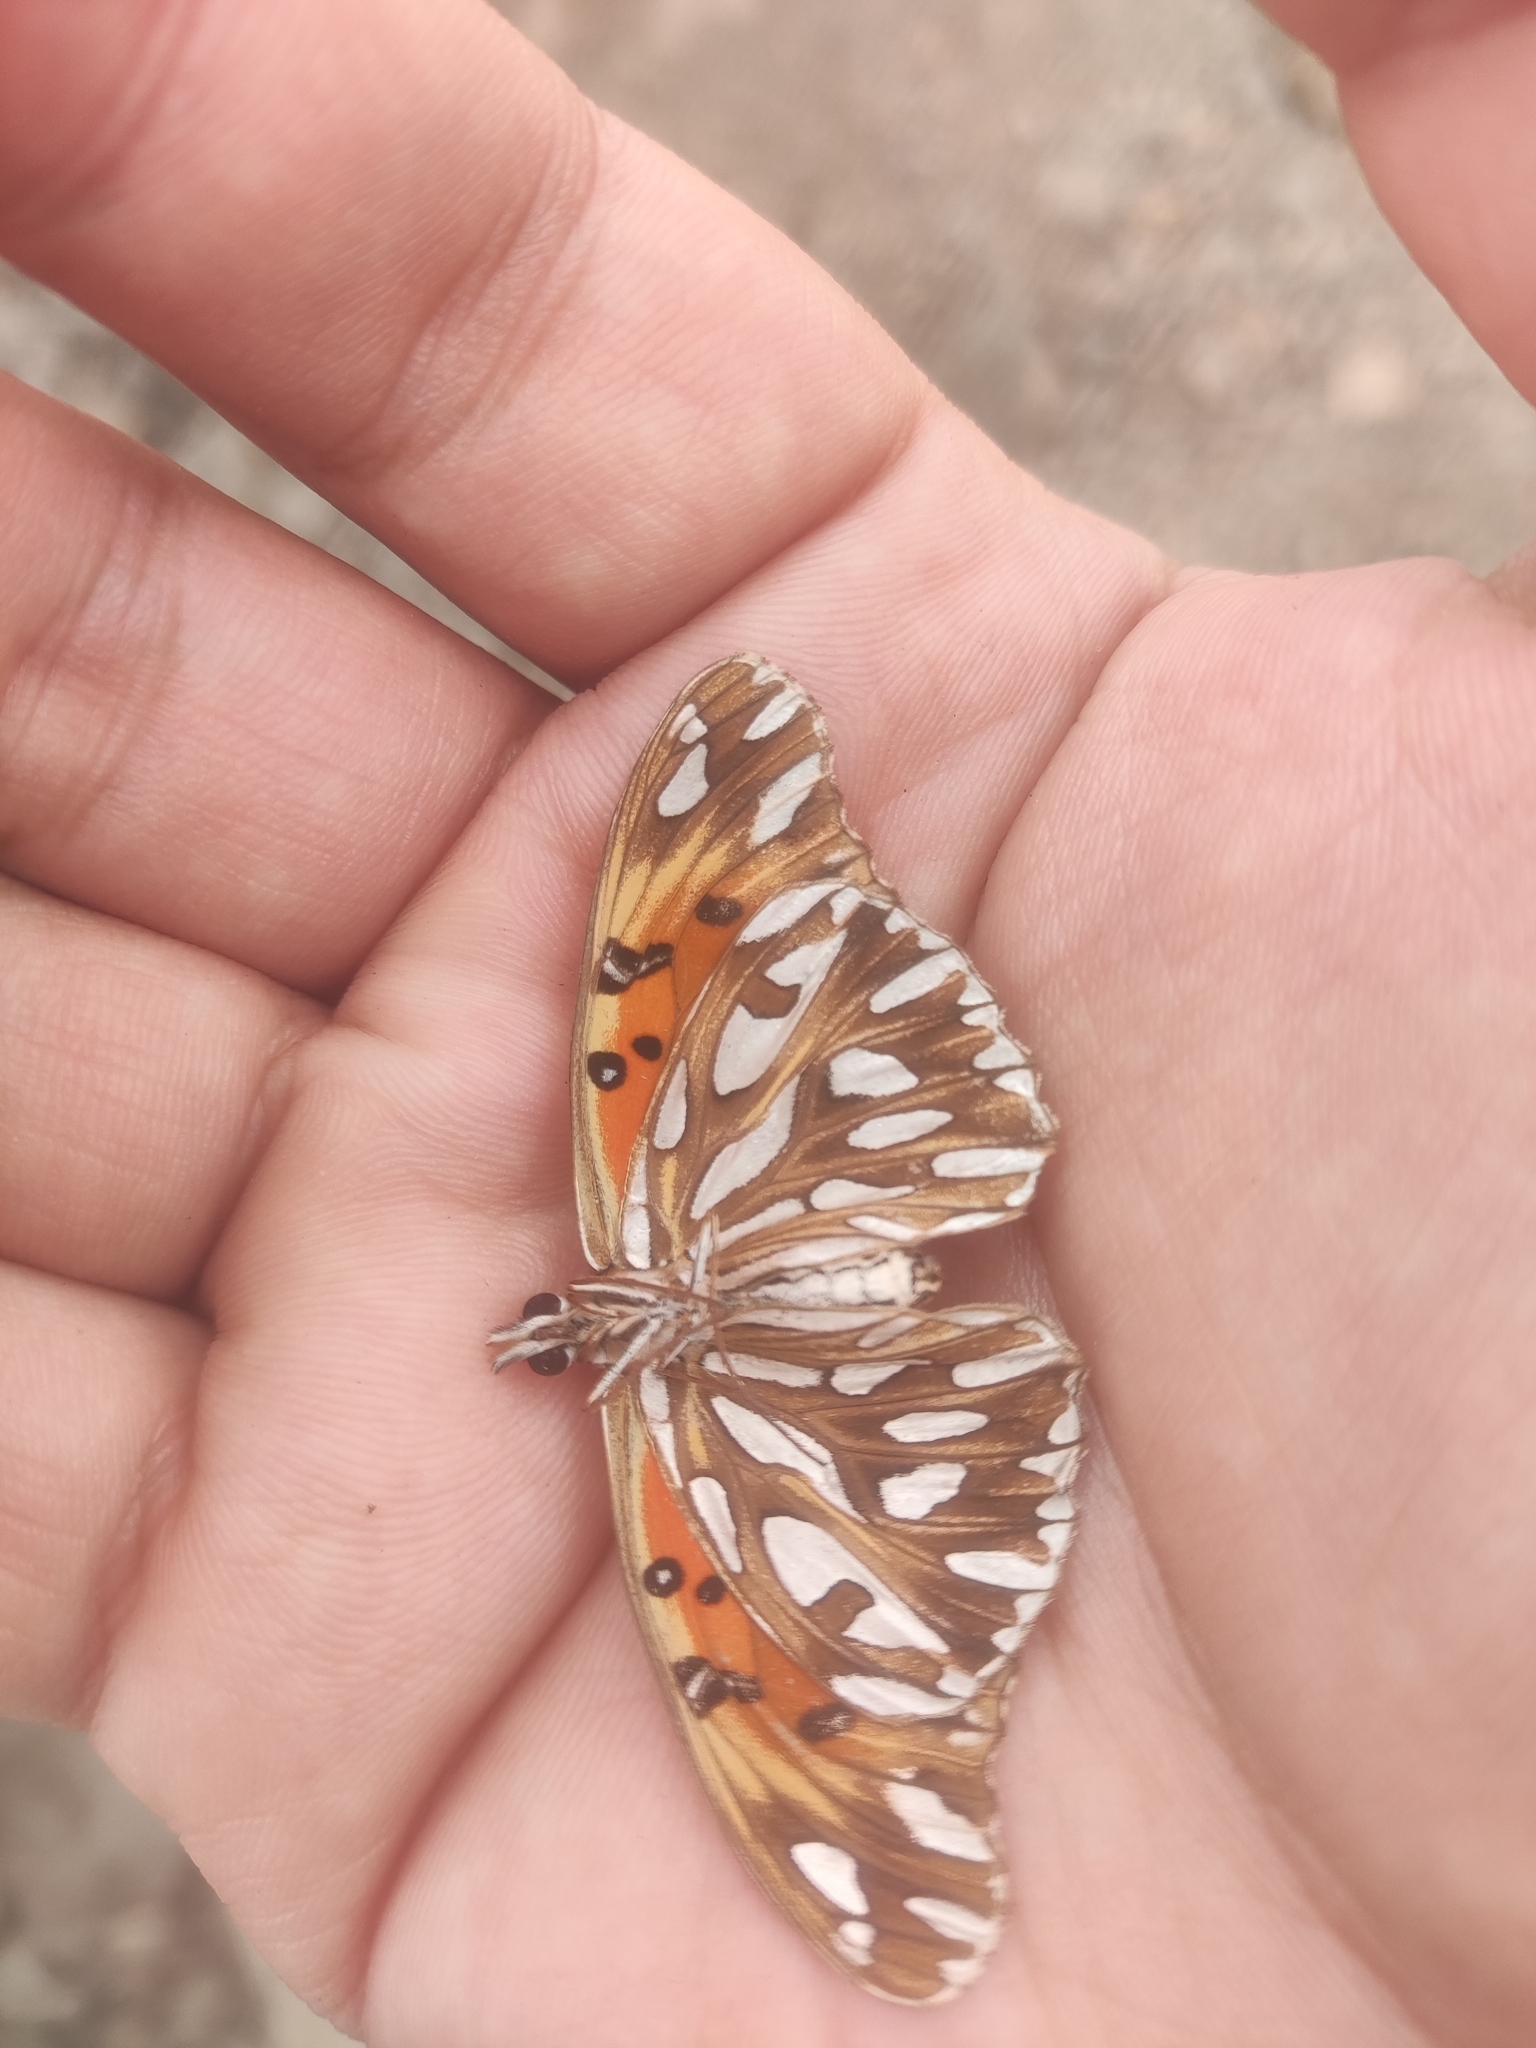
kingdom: Animalia
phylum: Arthropoda
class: Insecta
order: Lepidoptera
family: Nymphalidae
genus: Dione
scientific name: Dione vanillae
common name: Gulf fritillary
